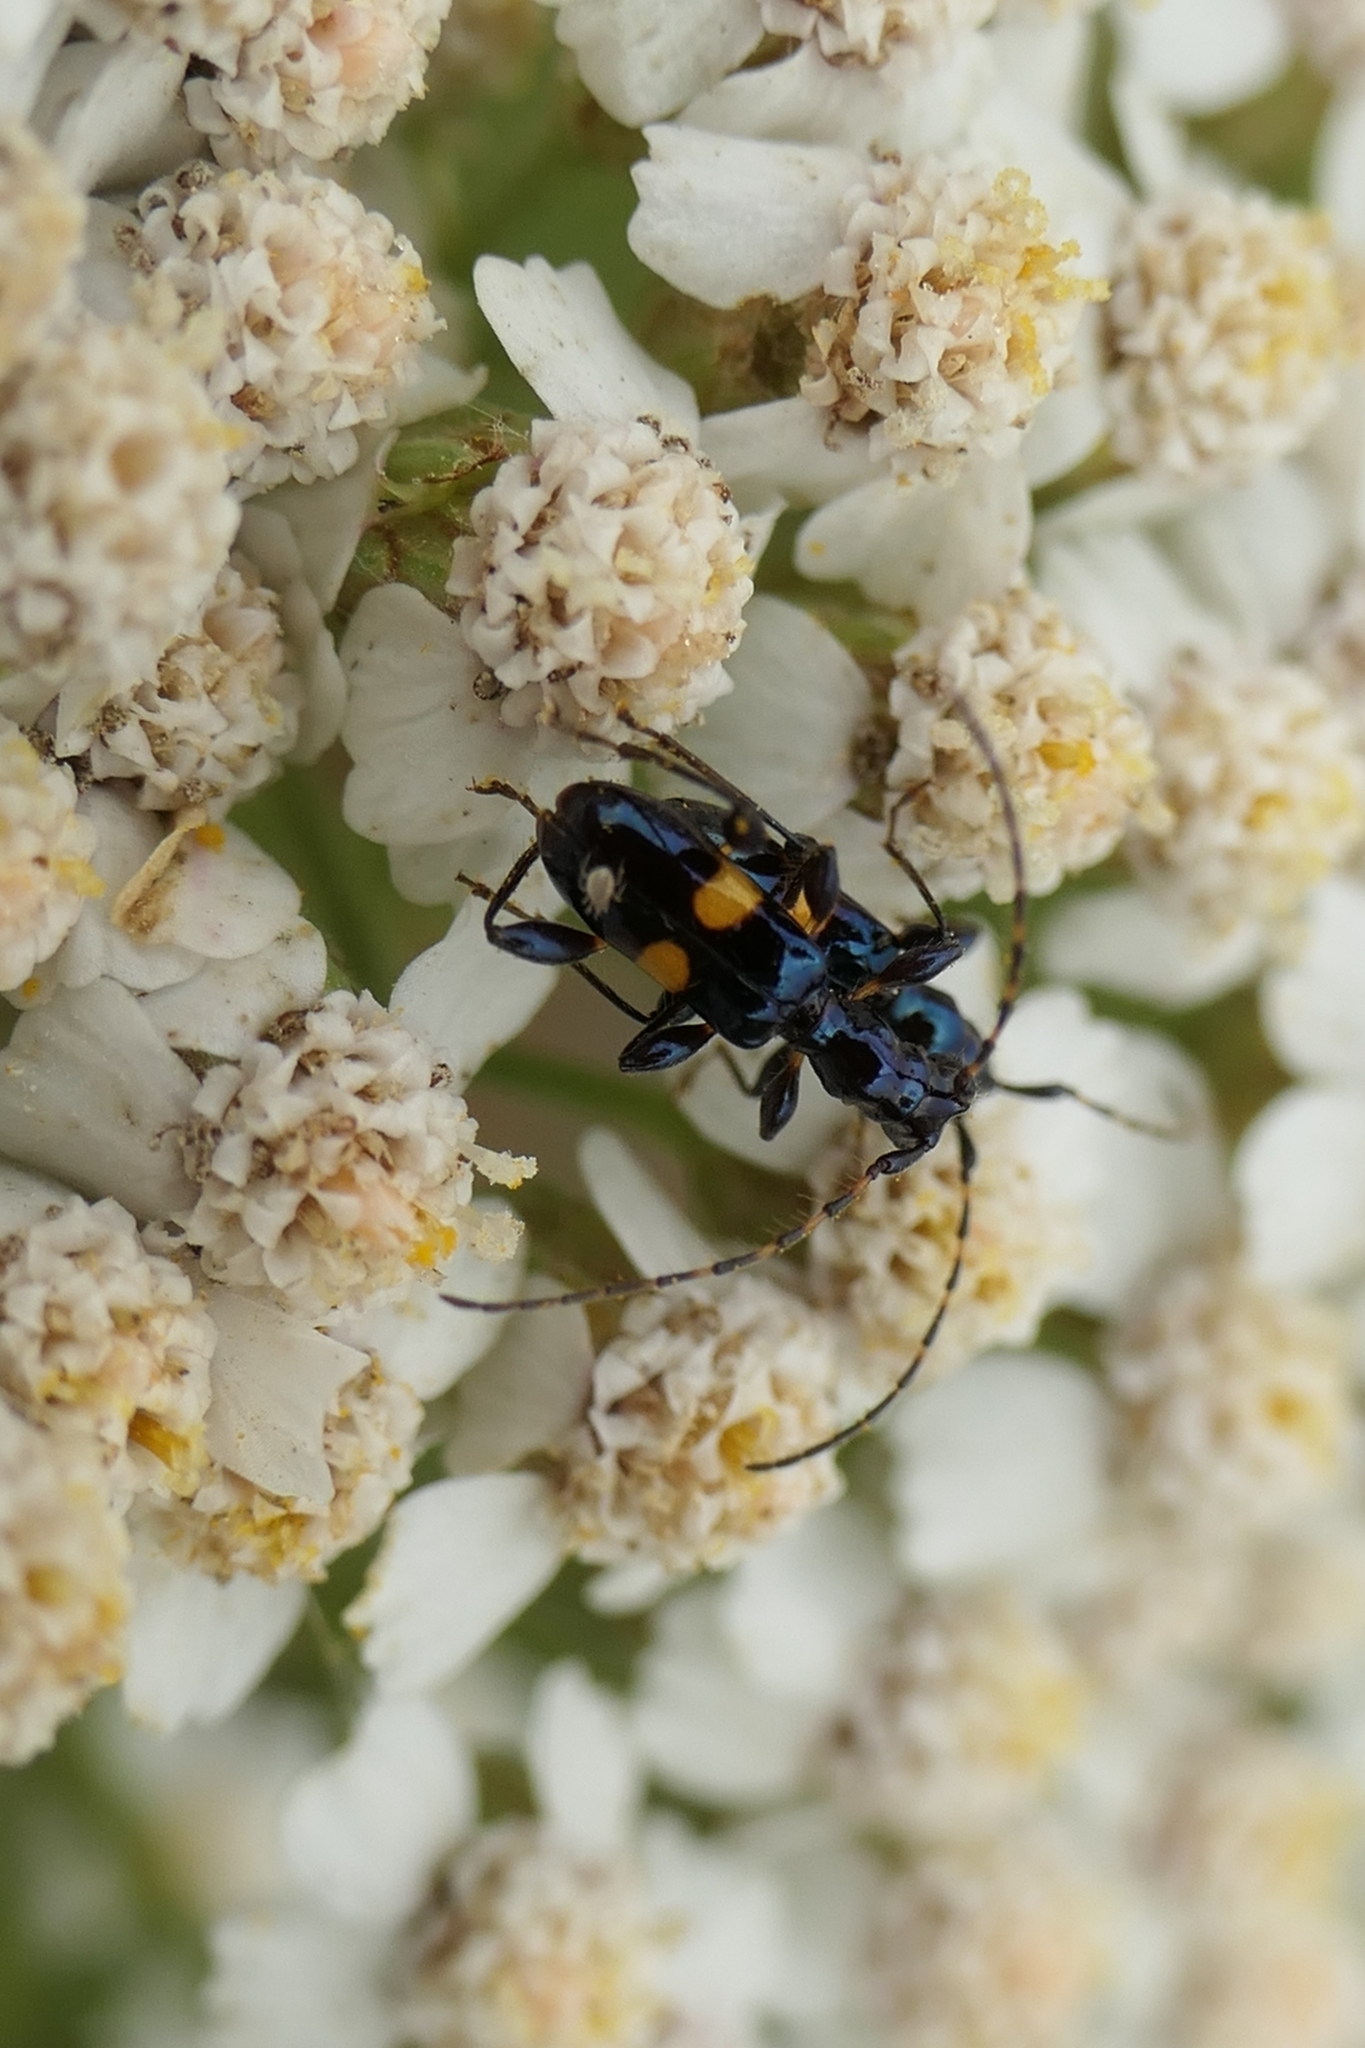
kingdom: Animalia
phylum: Arthropoda
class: Insecta
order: Coleoptera
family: Cerambycidae
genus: Zorion
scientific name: Zorion guttigerum
